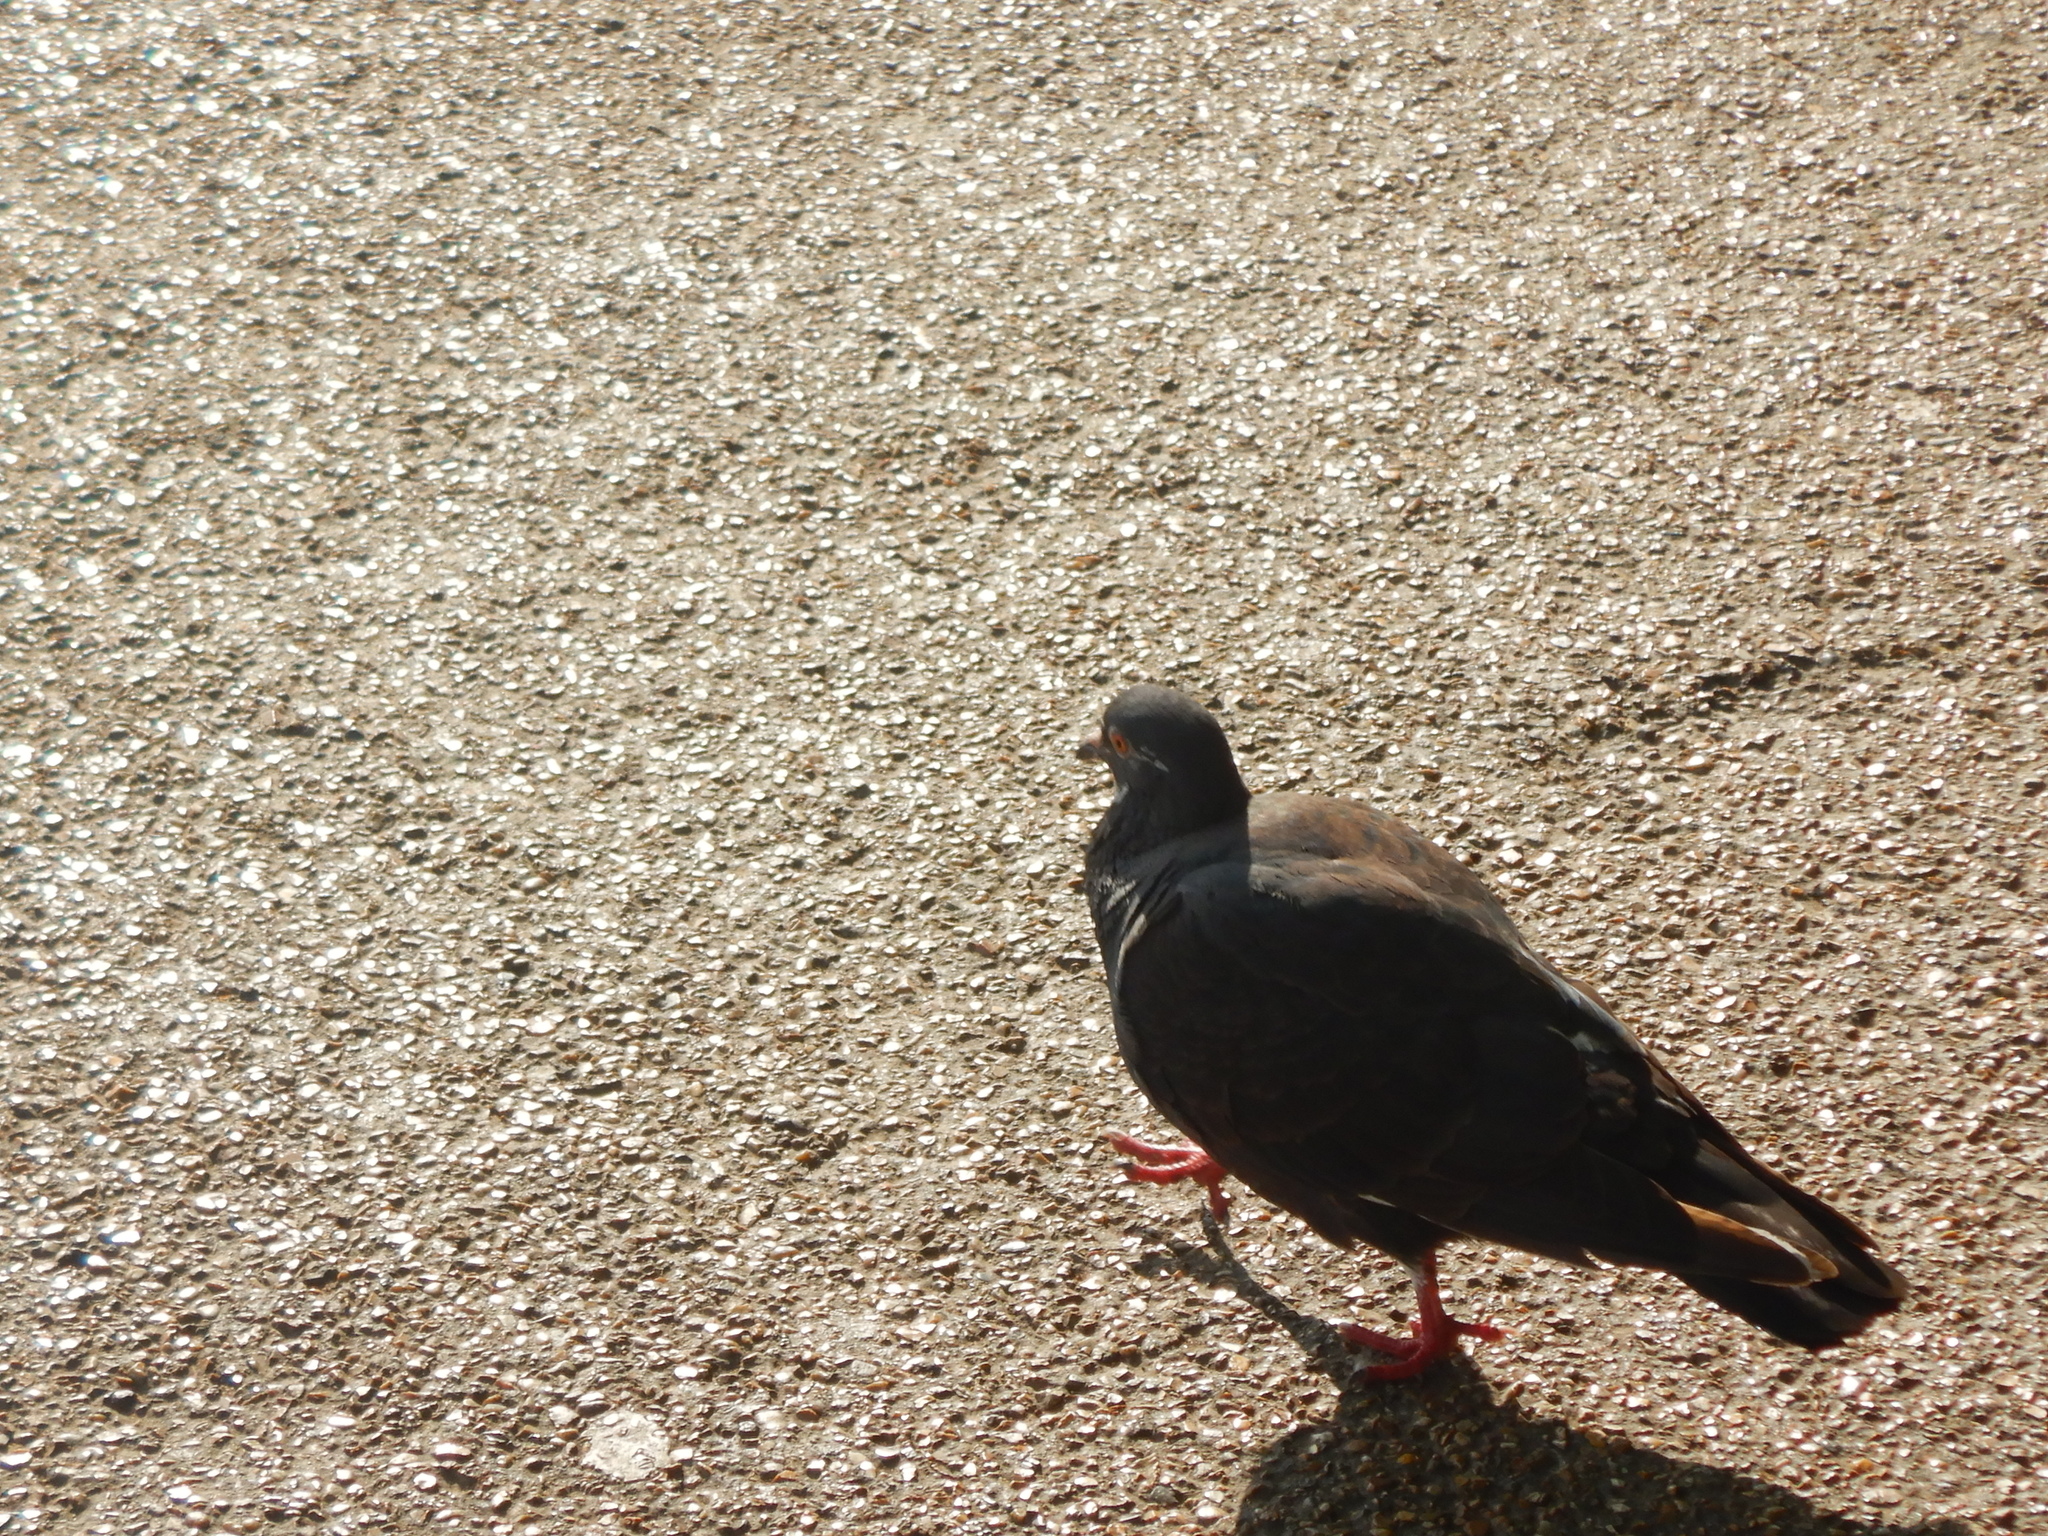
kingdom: Animalia
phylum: Chordata
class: Aves
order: Columbiformes
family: Columbidae
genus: Columba
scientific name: Columba livia
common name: Rock pigeon
